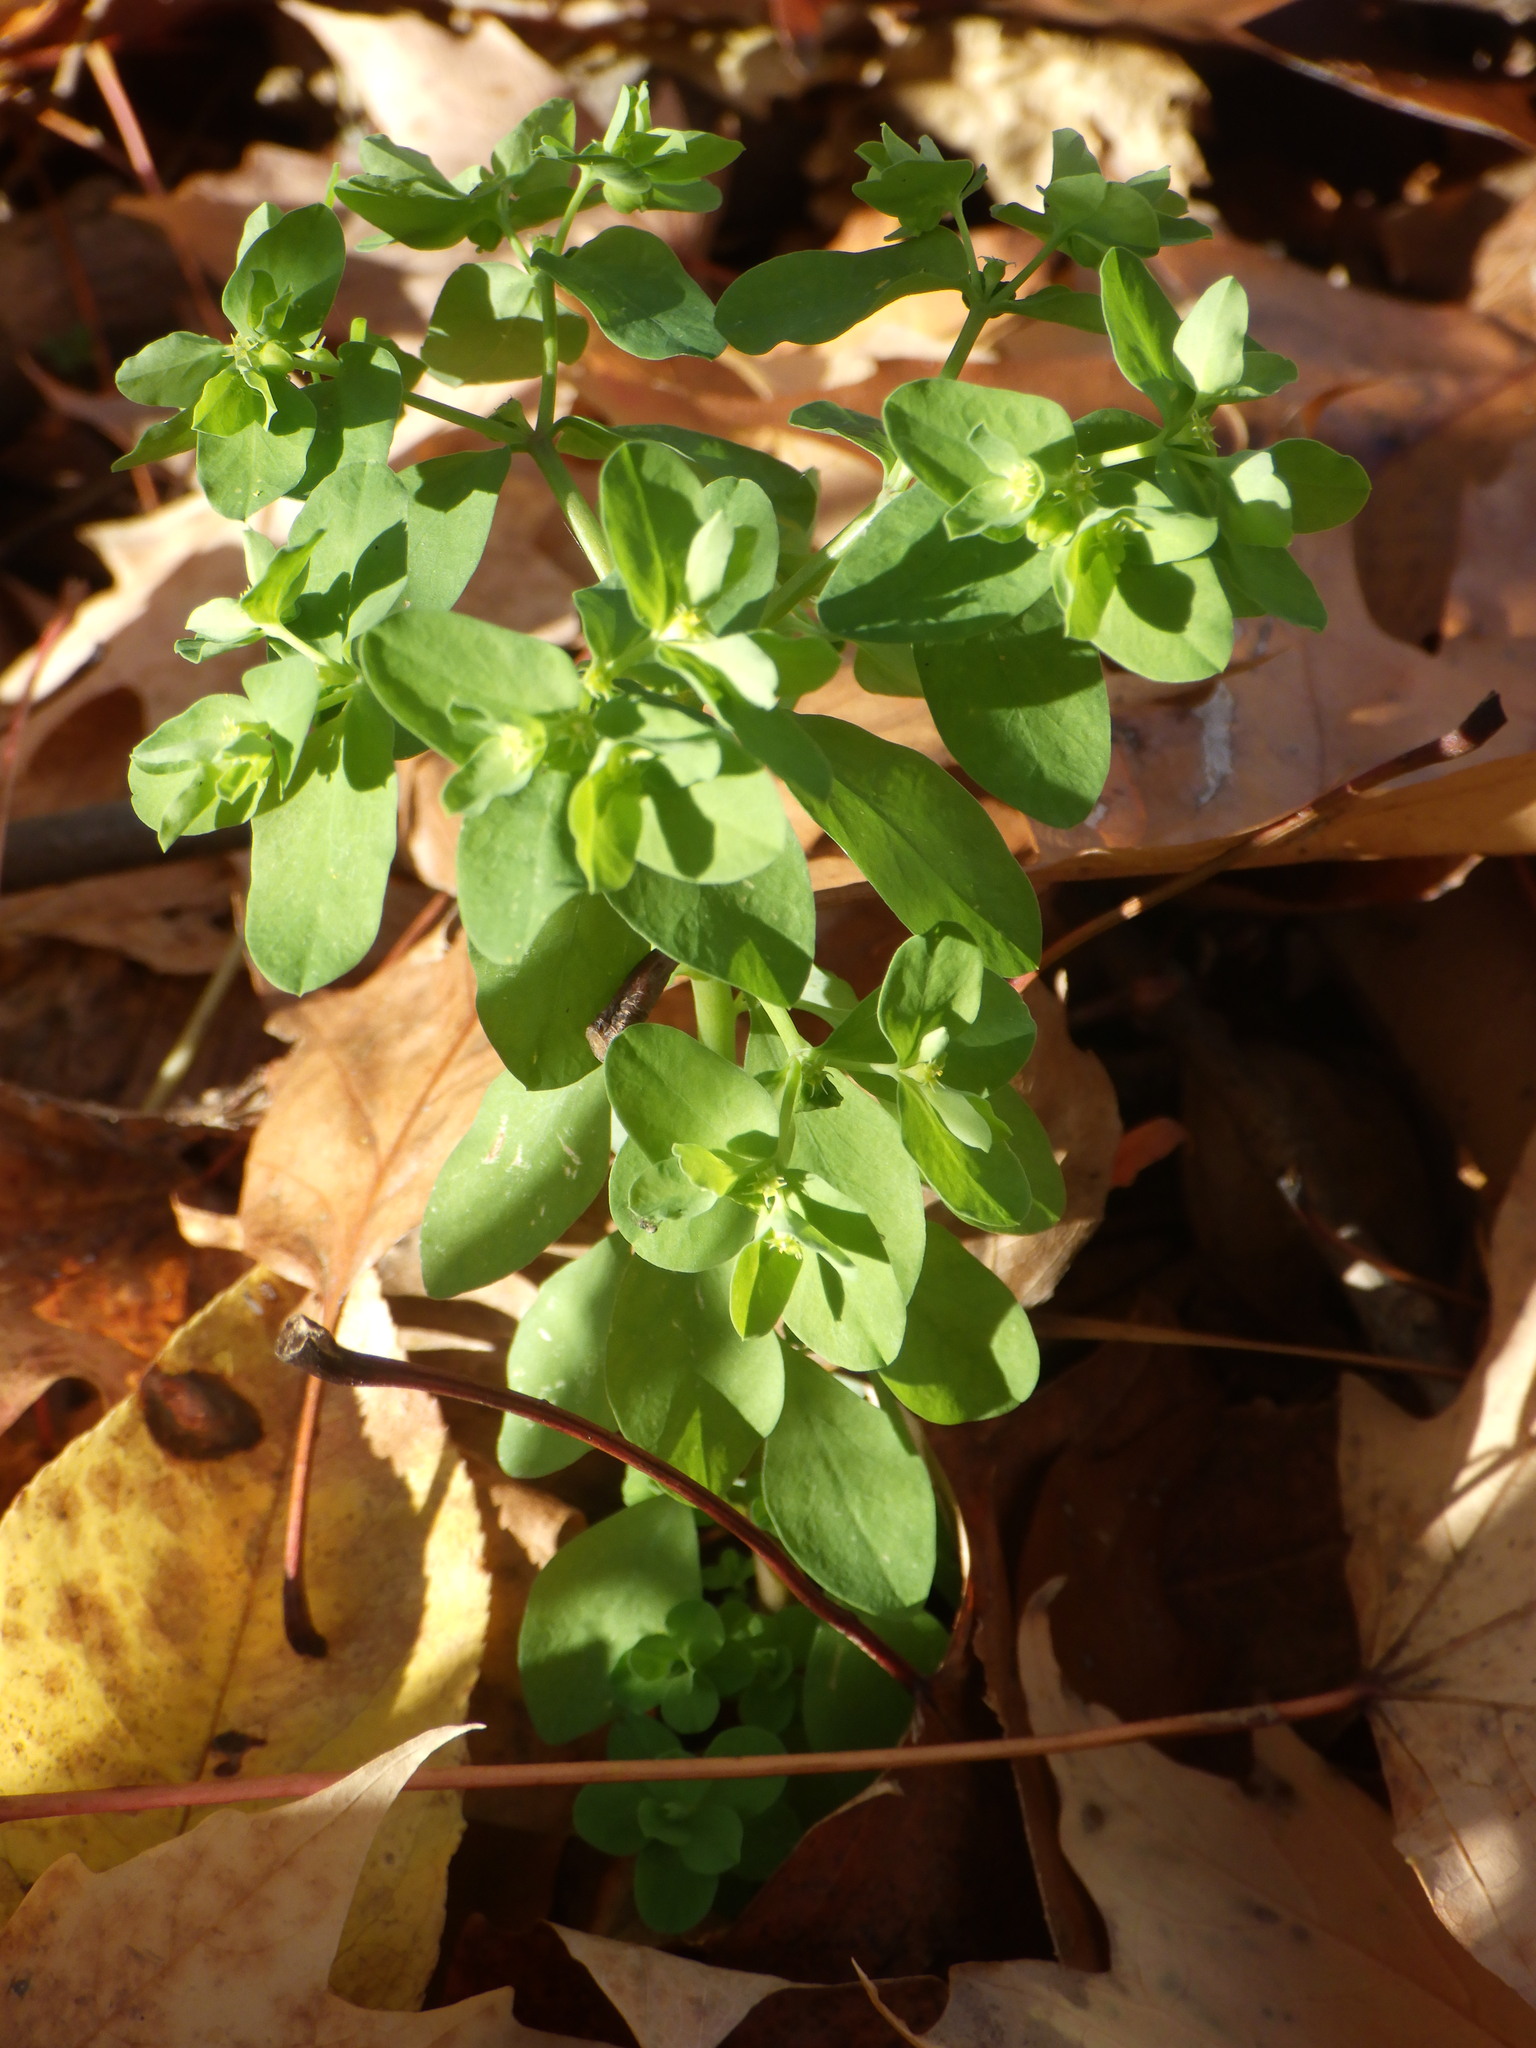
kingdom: Plantae
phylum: Tracheophyta
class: Magnoliopsida
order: Malpighiales
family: Euphorbiaceae
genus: Euphorbia
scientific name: Euphorbia peplus
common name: Petty spurge
